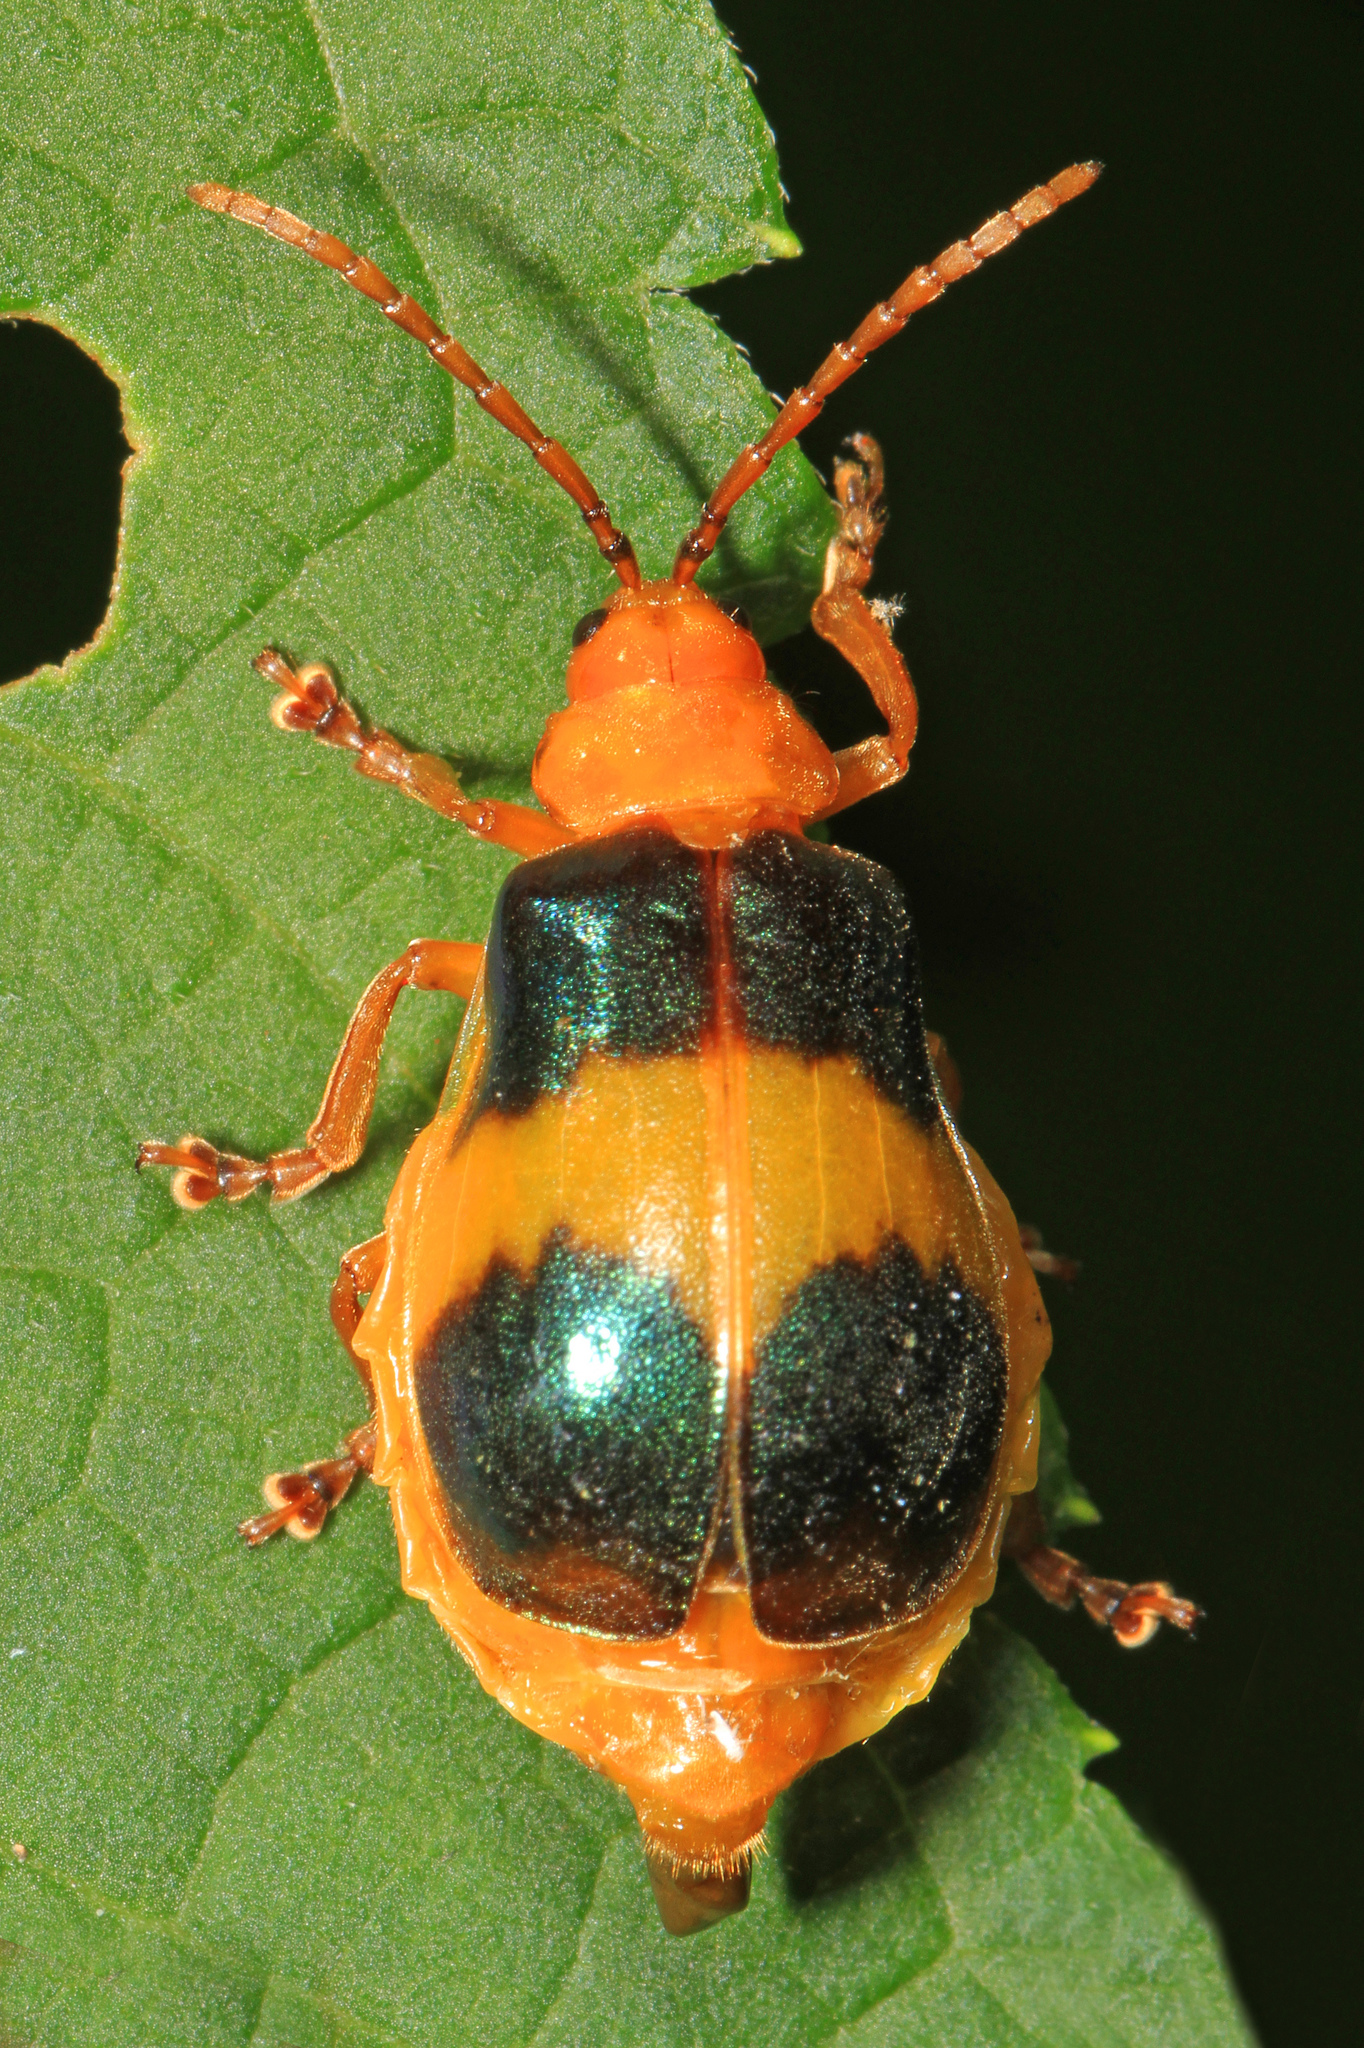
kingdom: Animalia
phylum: Arthropoda
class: Insecta
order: Coleoptera
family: Chrysomelidae
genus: Monocesta
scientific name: Monocesta coryli
